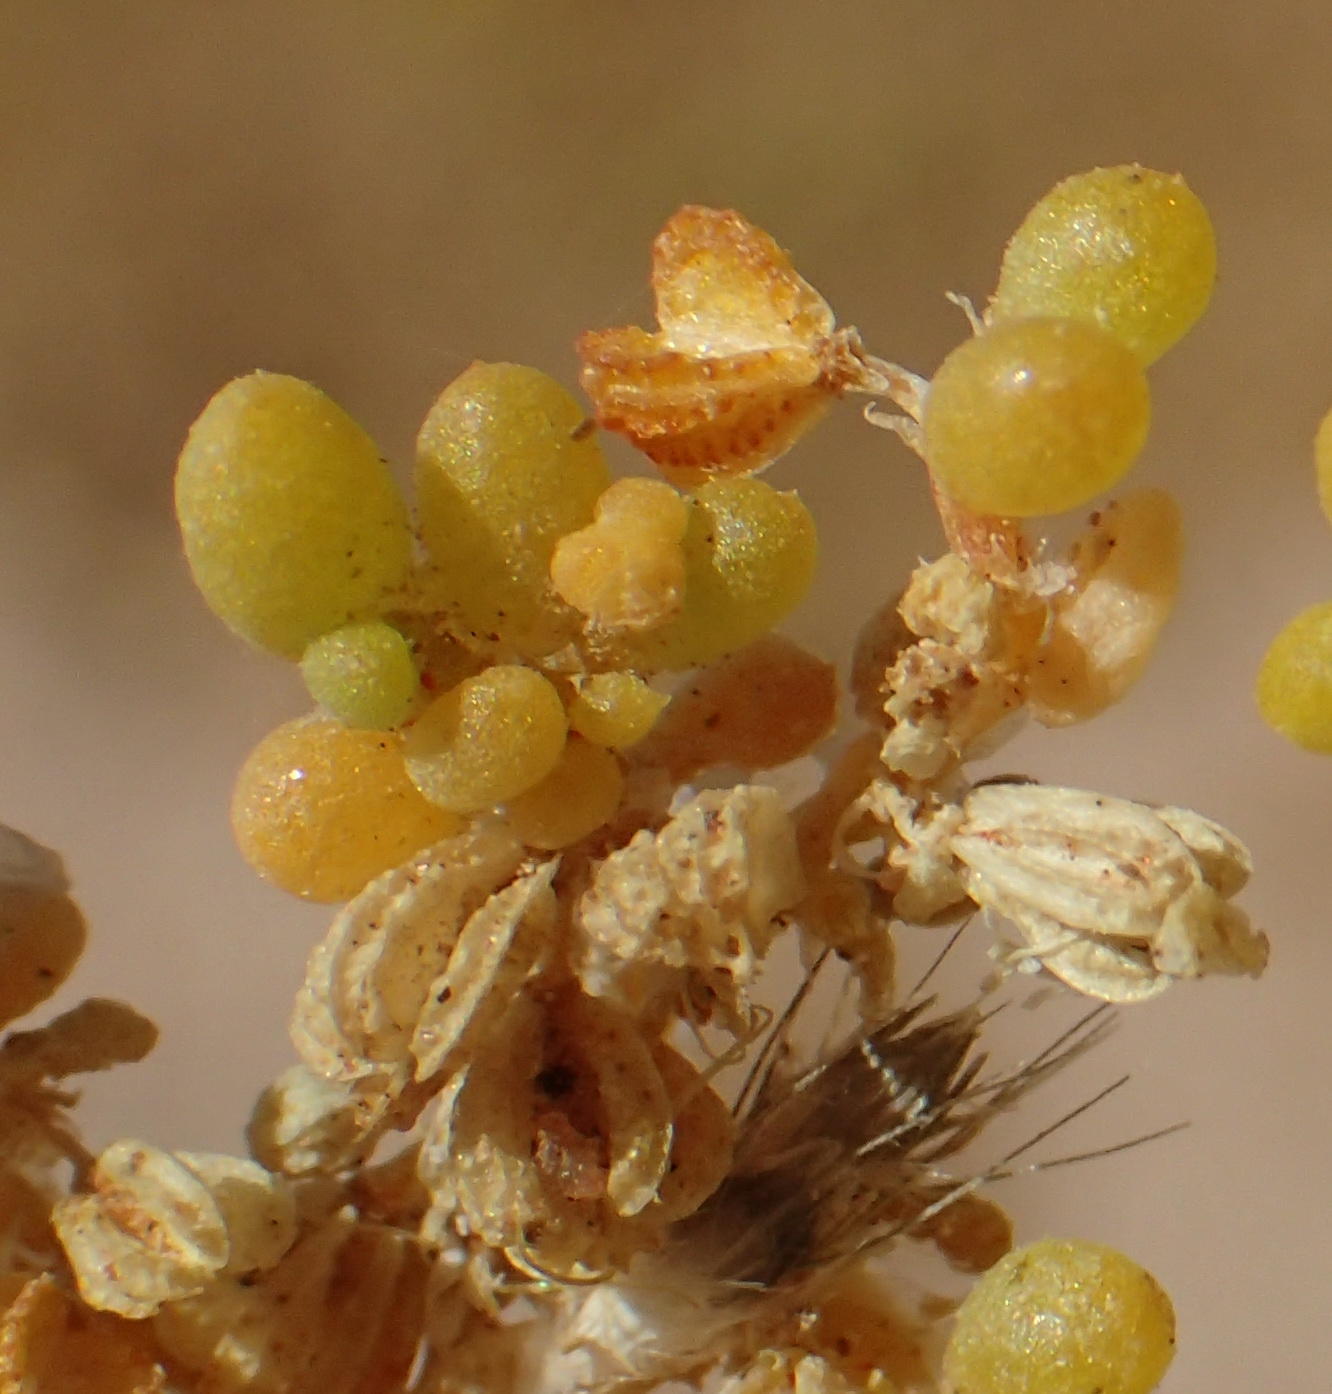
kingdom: Plantae
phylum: Tracheophyta
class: Magnoliopsida
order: Zygophyllales
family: Zygophyllaceae
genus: Tetraena
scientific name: Tetraena simplex
